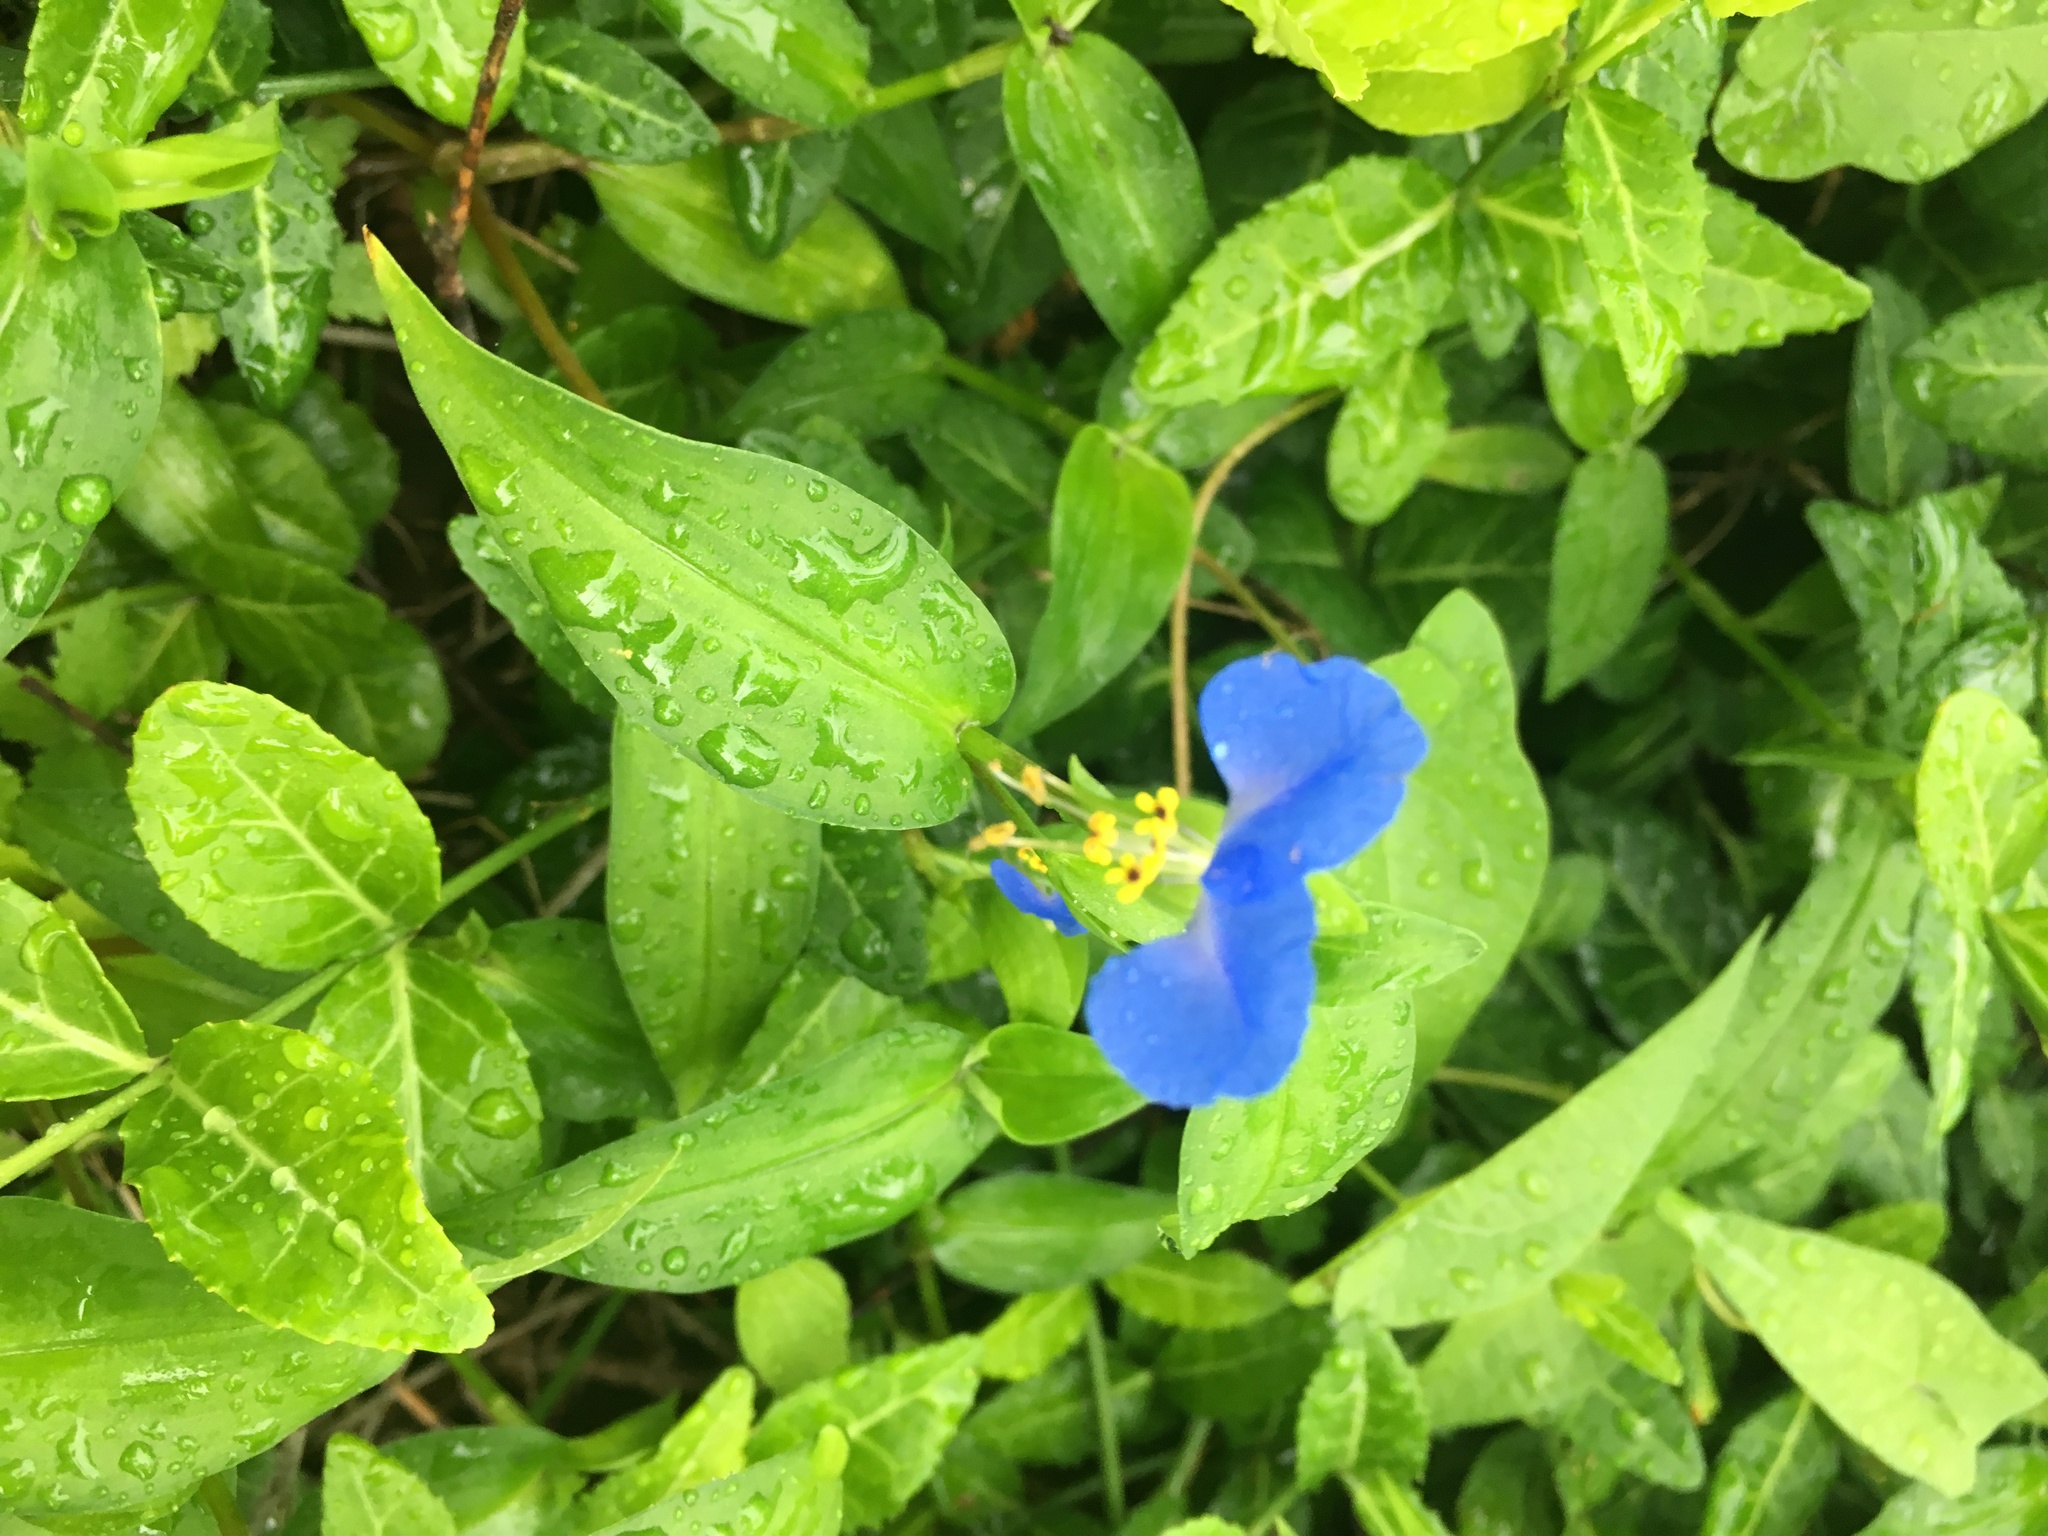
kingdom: Plantae
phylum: Tracheophyta
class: Liliopsida
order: Commelinales
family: Commelinaceae
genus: Commelina
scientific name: Commelina communis
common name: Asiatic dayflower
